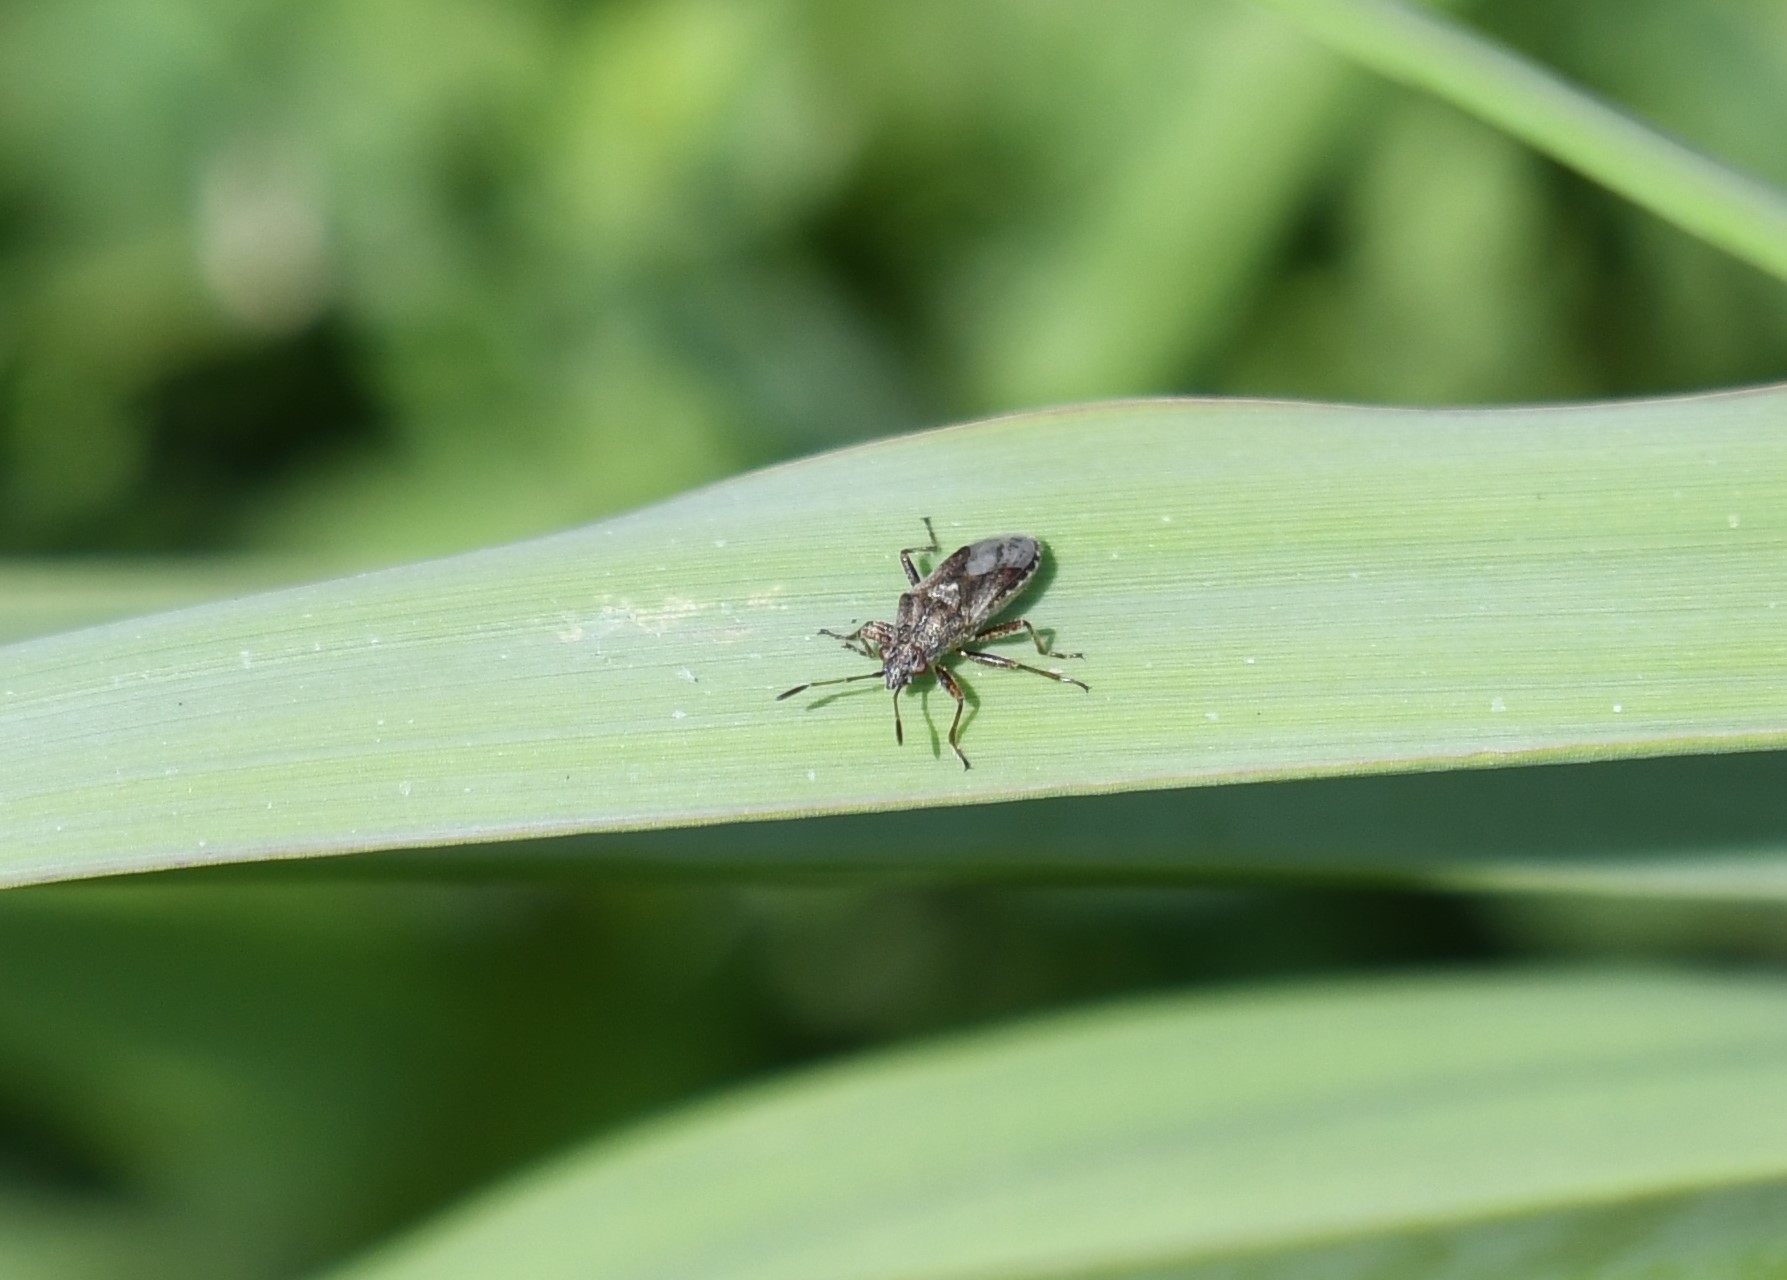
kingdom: Animalia
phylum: Arthropoda
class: Insecta
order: Hemiptera
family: Lygaeidae
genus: Neortholomus
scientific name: Neortholomus scolopax
